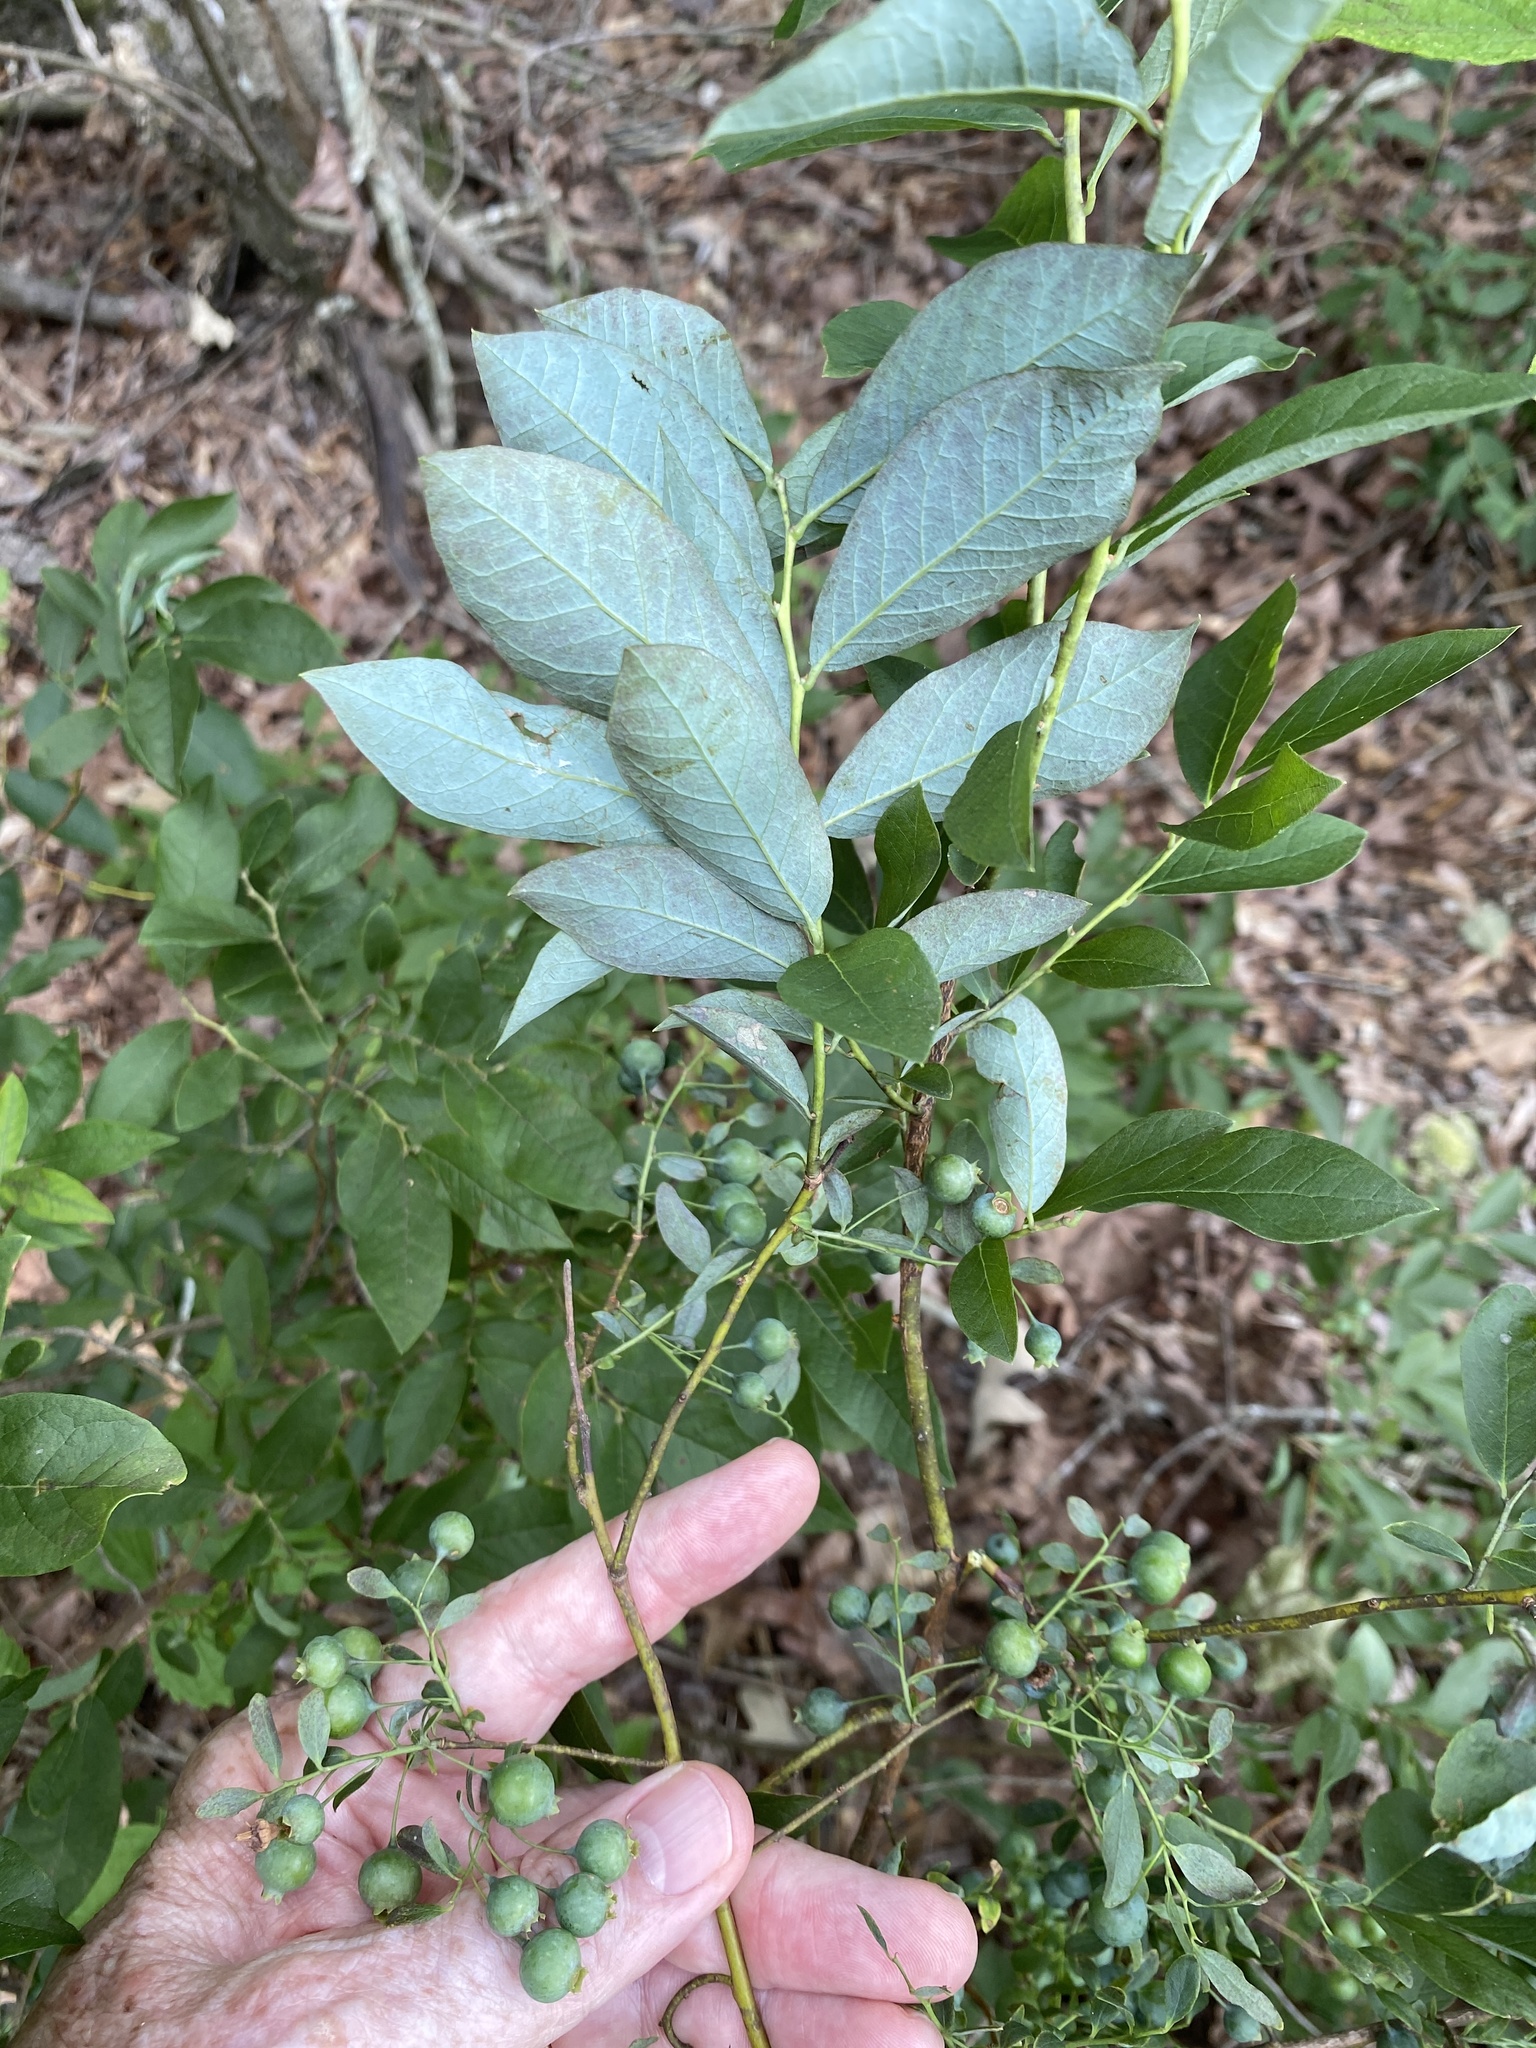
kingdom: Plantae
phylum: Tracheophyta
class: Magnoliopsida
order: Ericales
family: Ericaceae
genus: Vaccinium
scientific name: Vaccinium stamineum
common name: Deerberry
